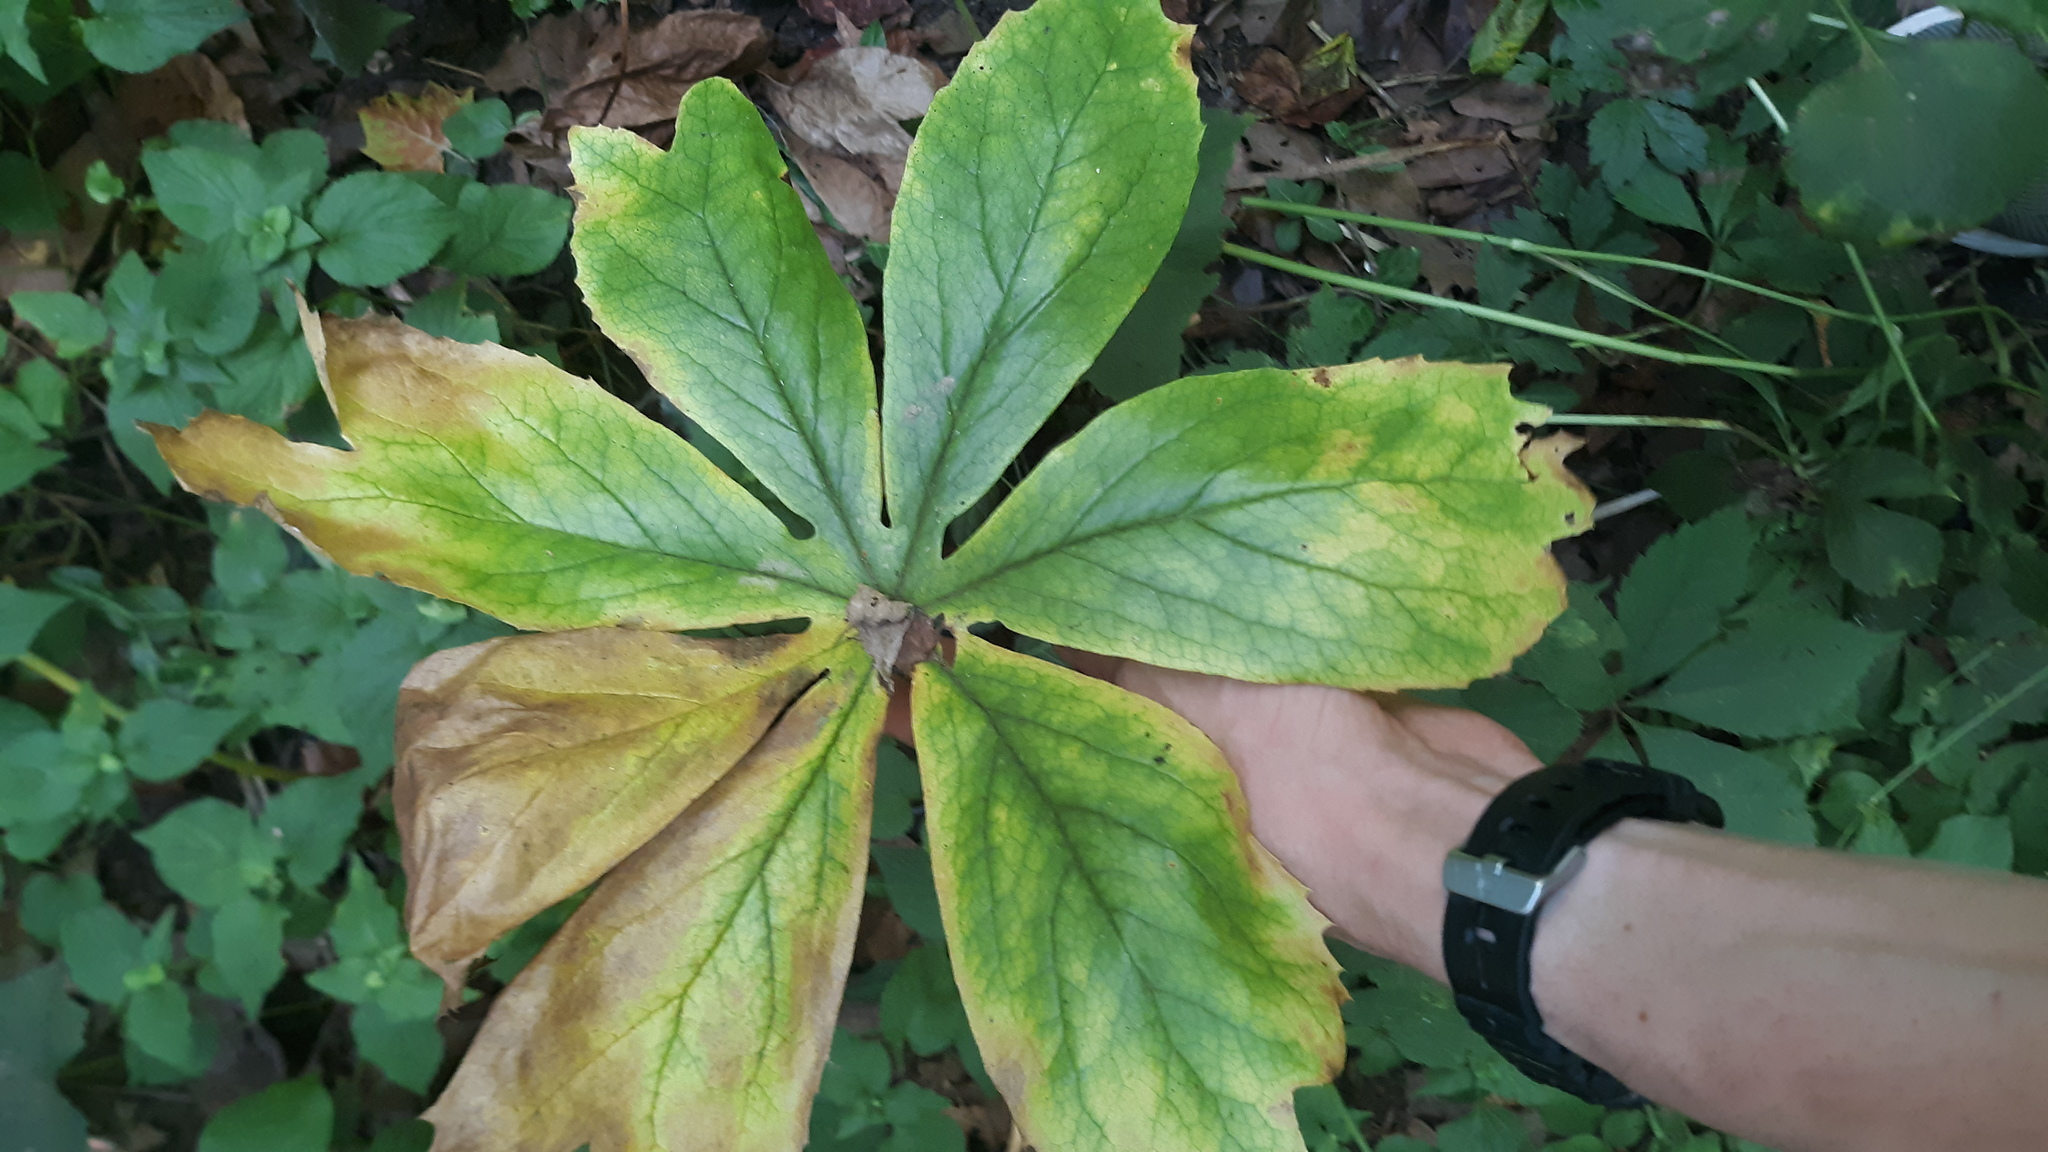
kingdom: Plantae
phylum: Tracheophyta
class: Magnoliopsida
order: Ranunculales
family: Berberidaceae
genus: Podophyllum
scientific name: Podophyllum peltatum
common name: Wild mandrake
